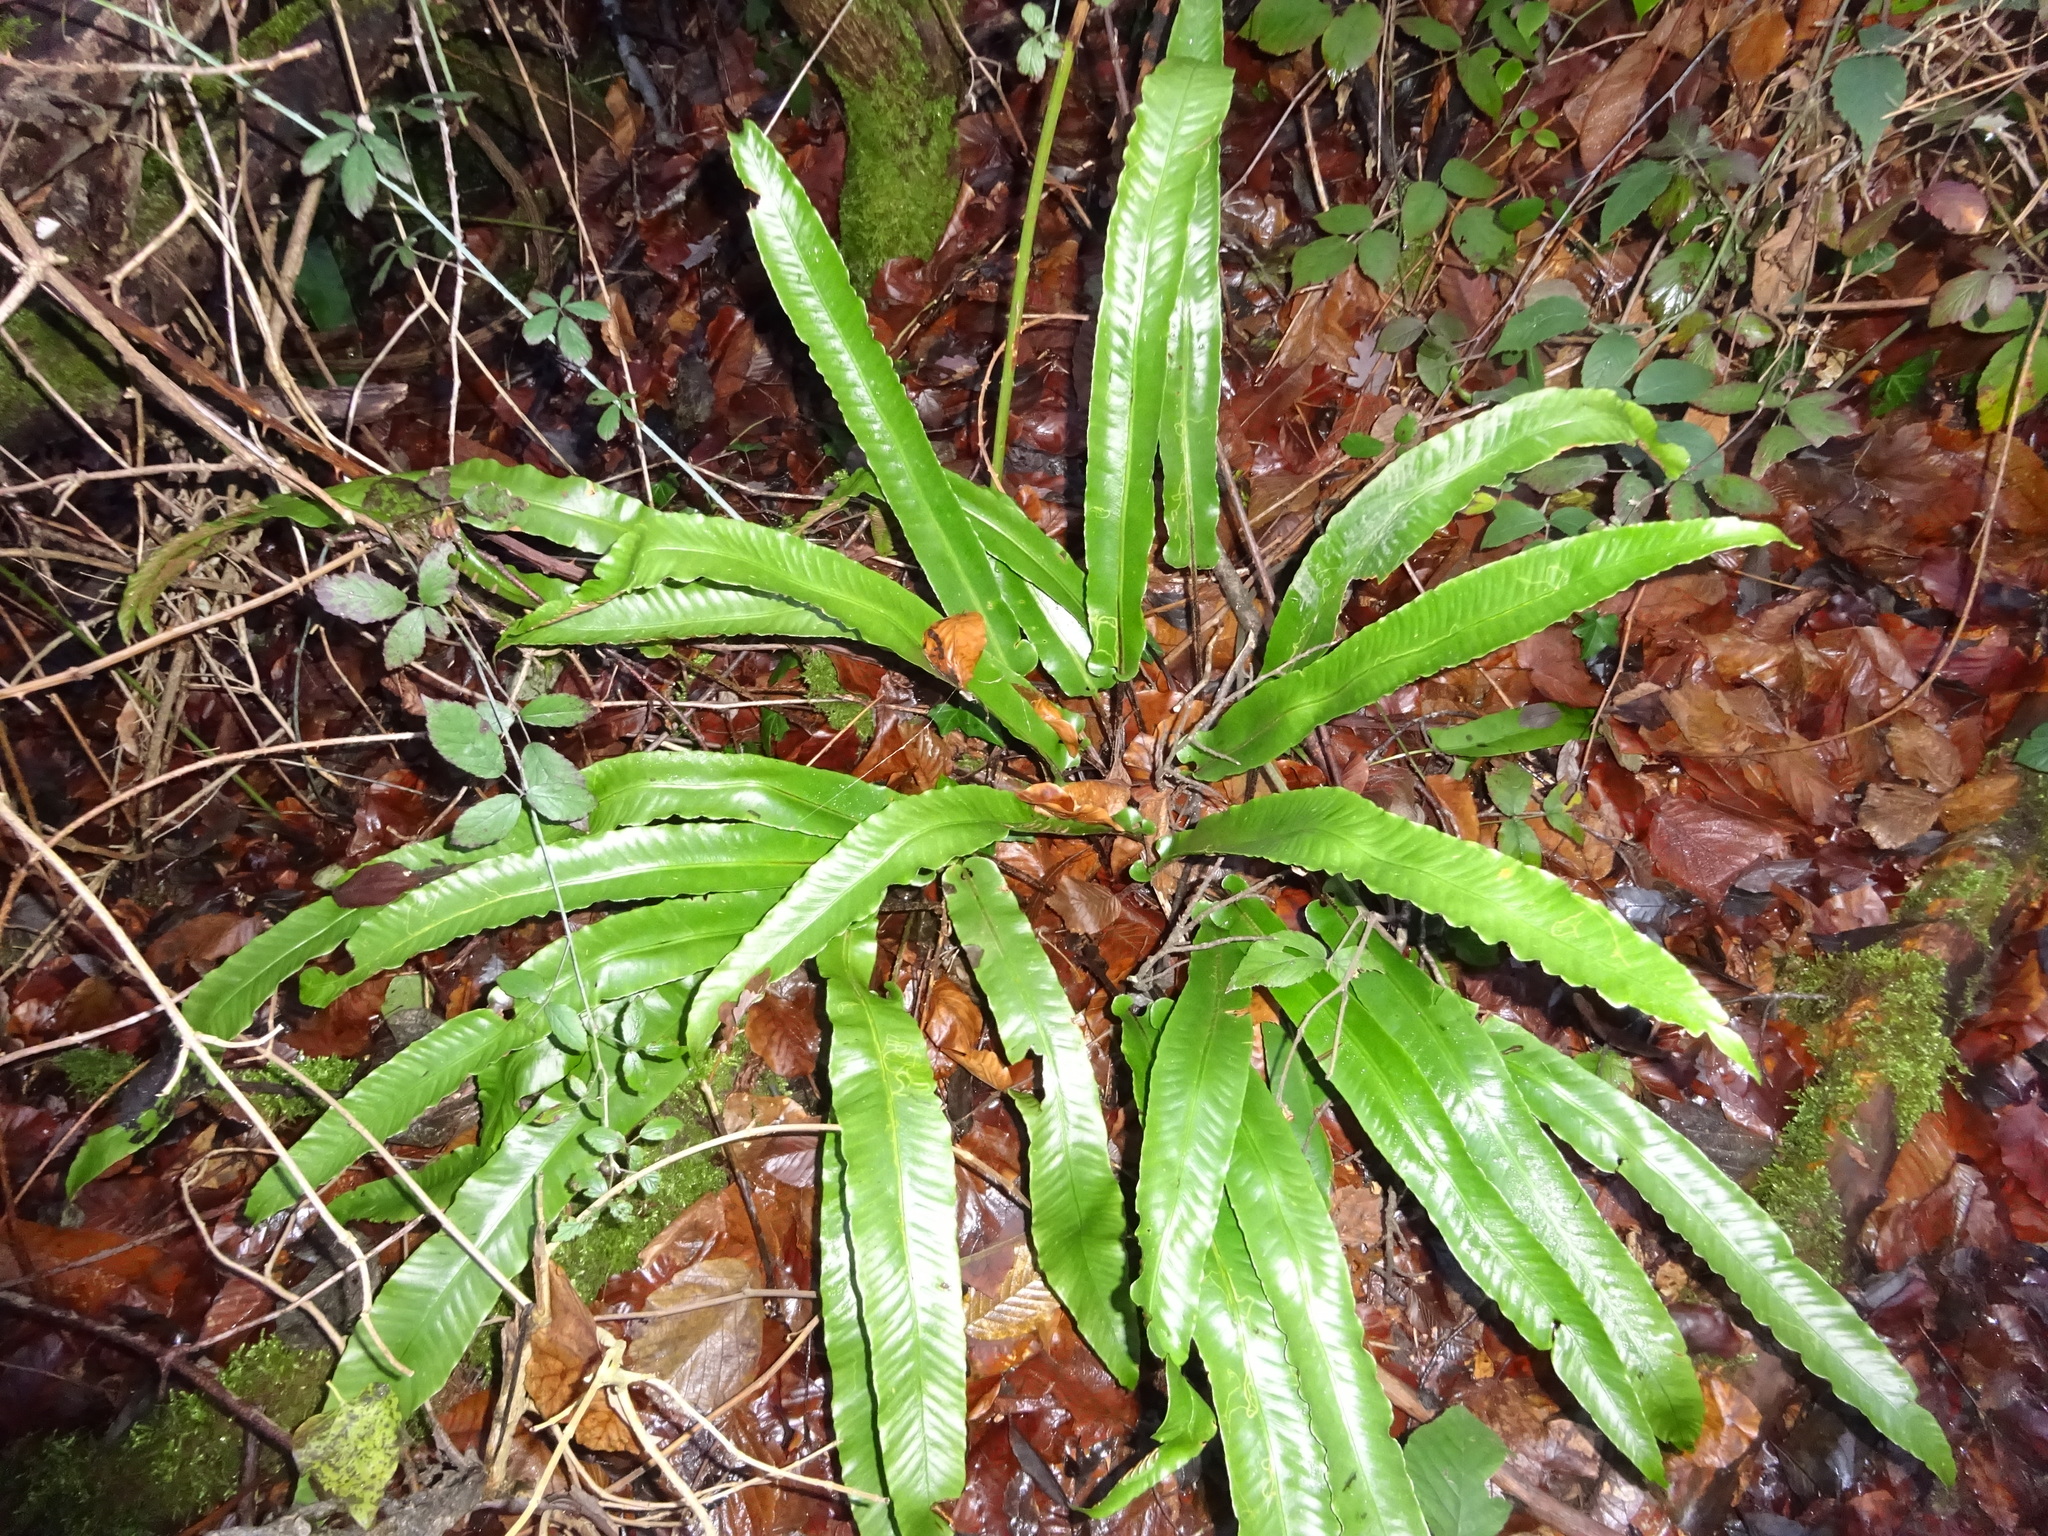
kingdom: Plantae
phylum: Tracheophyta
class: Polypodiopsida
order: Polypodiales
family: Aspleniaceae
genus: Asplenium
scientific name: Asplenium scolopendrium
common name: Hart's-tongue fern
